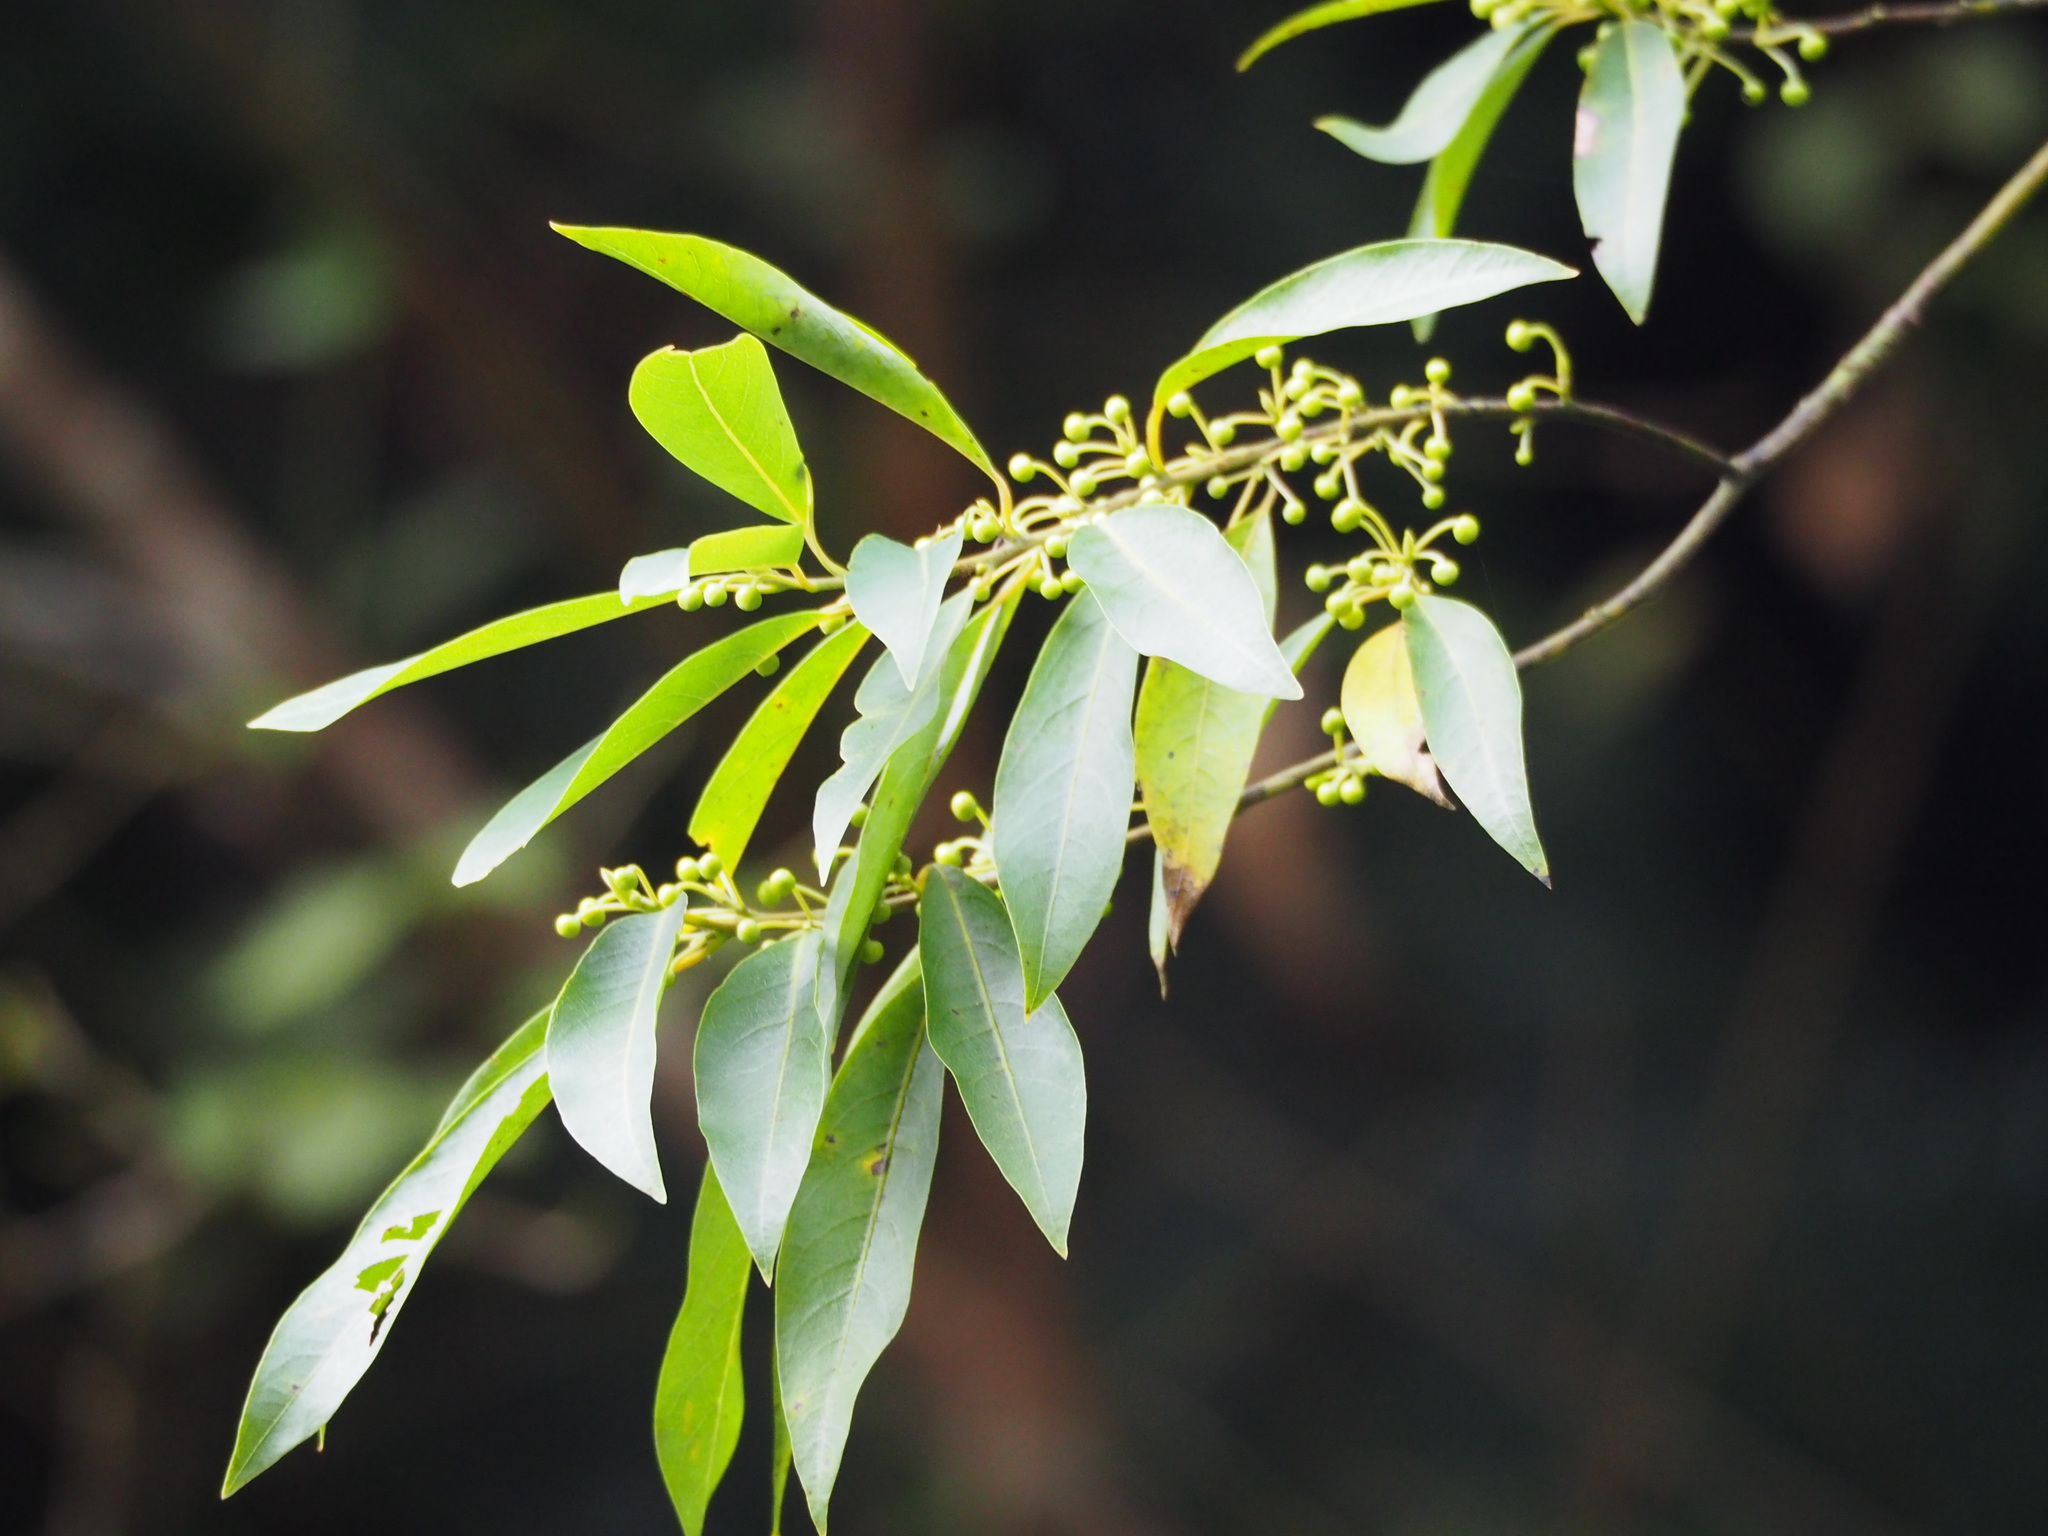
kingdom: Plantae
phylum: Tracheophyta
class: Magnoliopsida
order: Laurales
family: Lauraceae
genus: Litsea
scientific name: Litsea cubeba
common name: Mountain-pepper
